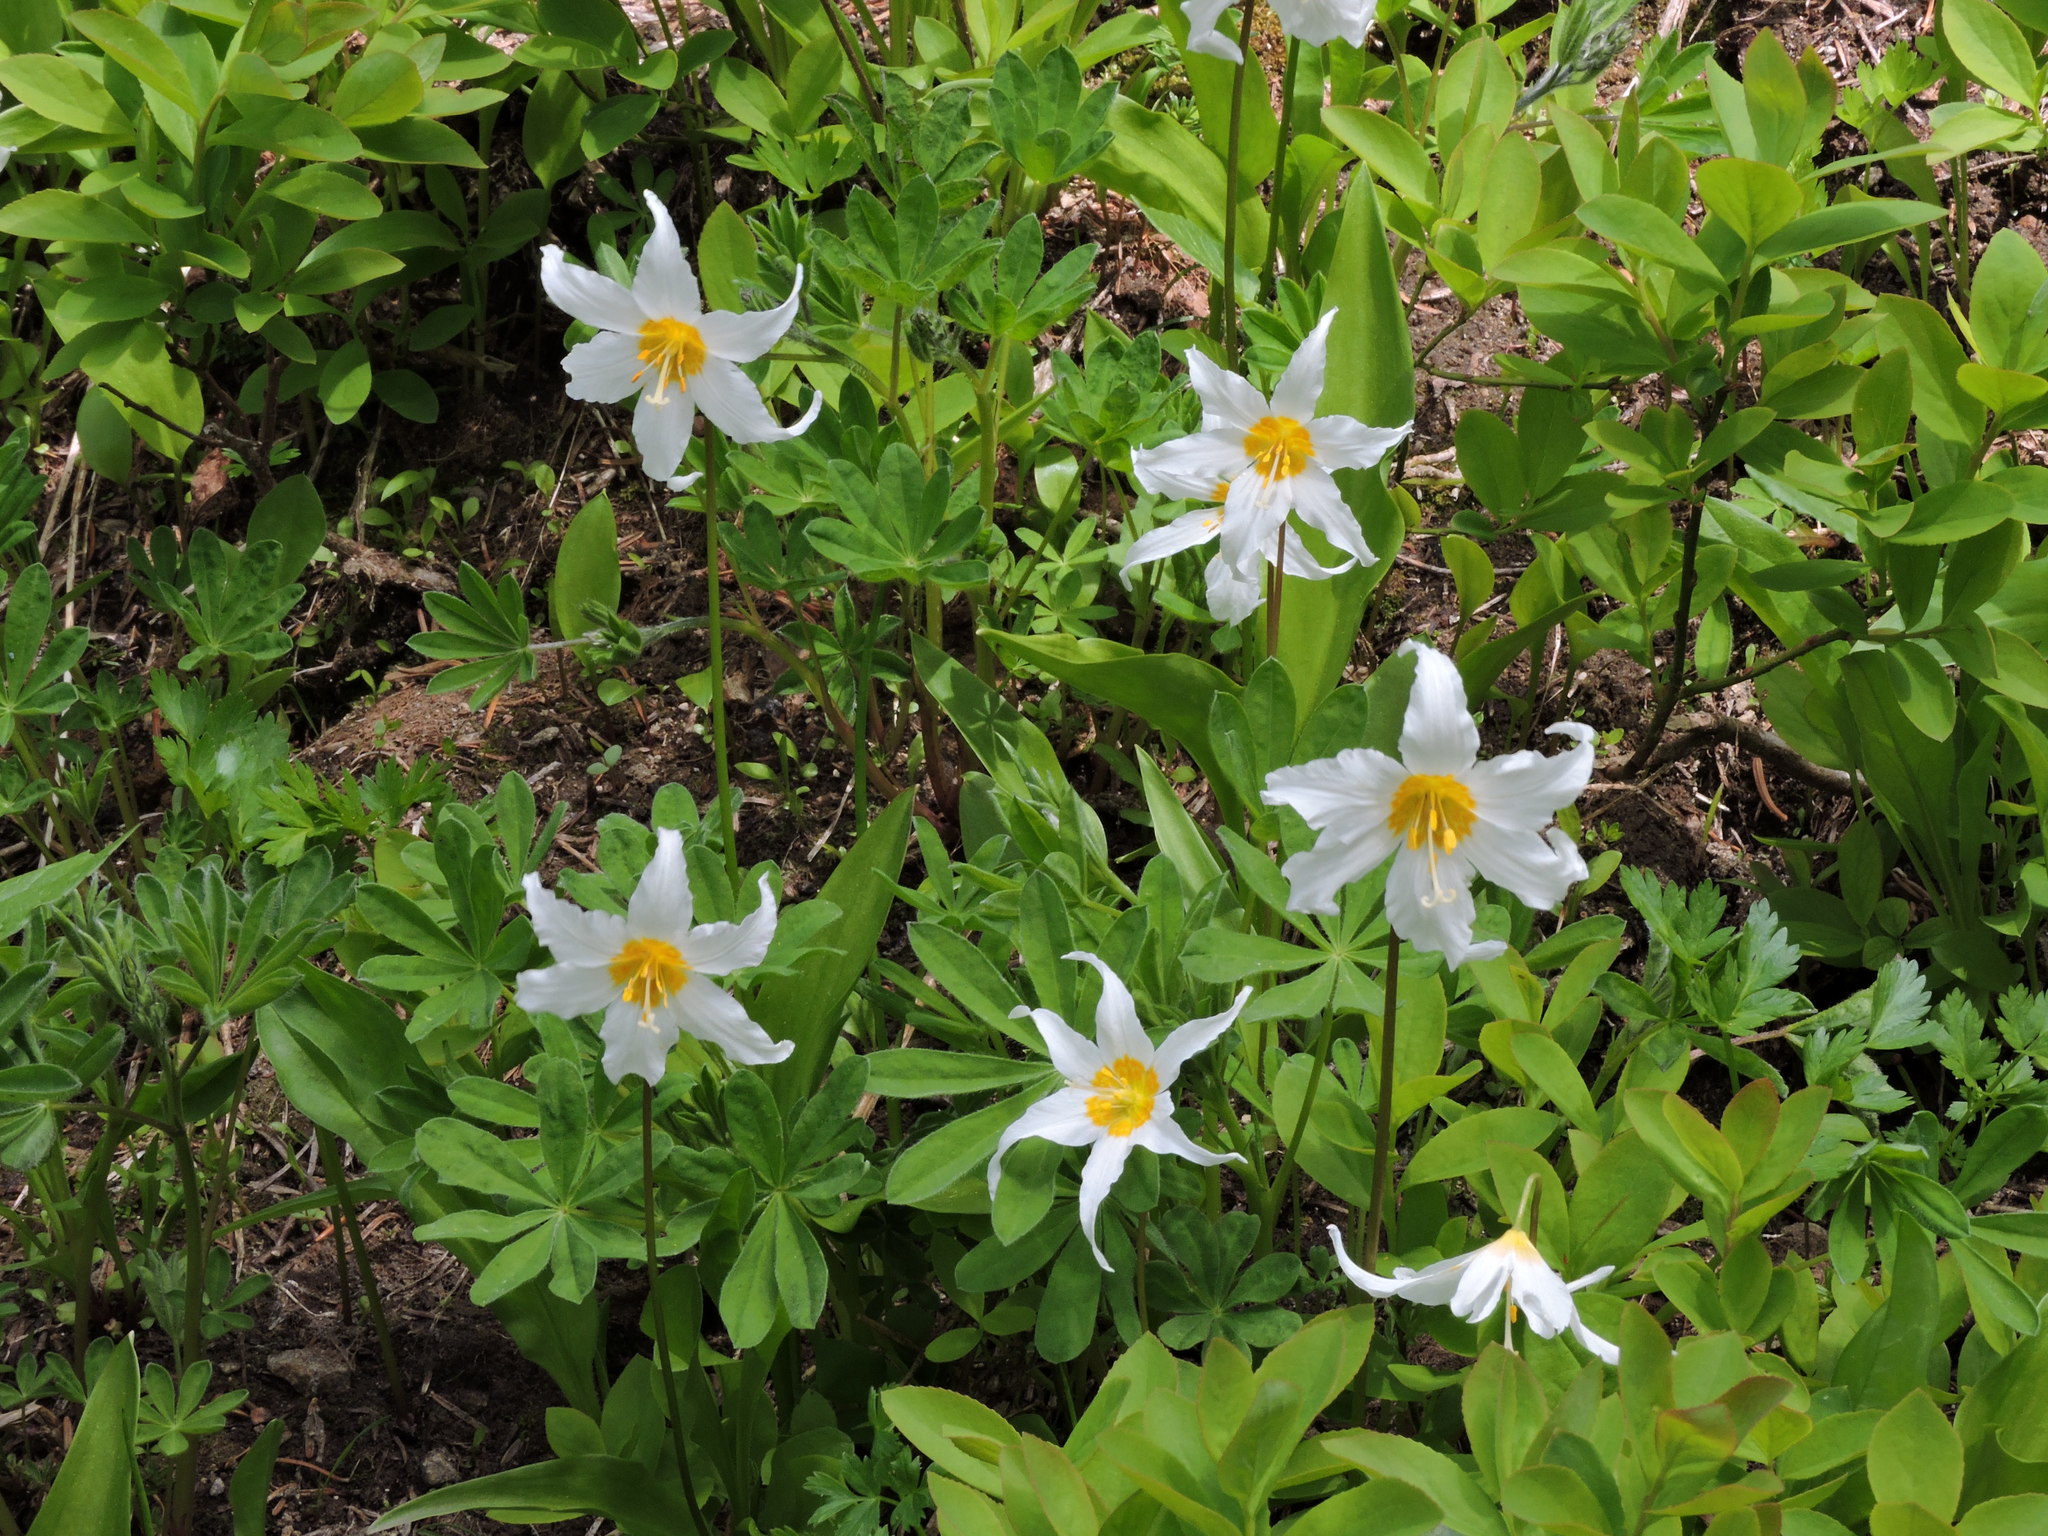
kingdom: Plantae
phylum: Tracheophyta
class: Liliopsida
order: Liliales
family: Liliaceae
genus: Erythronium
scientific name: Erythronium montanum
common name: Avalanche lily
